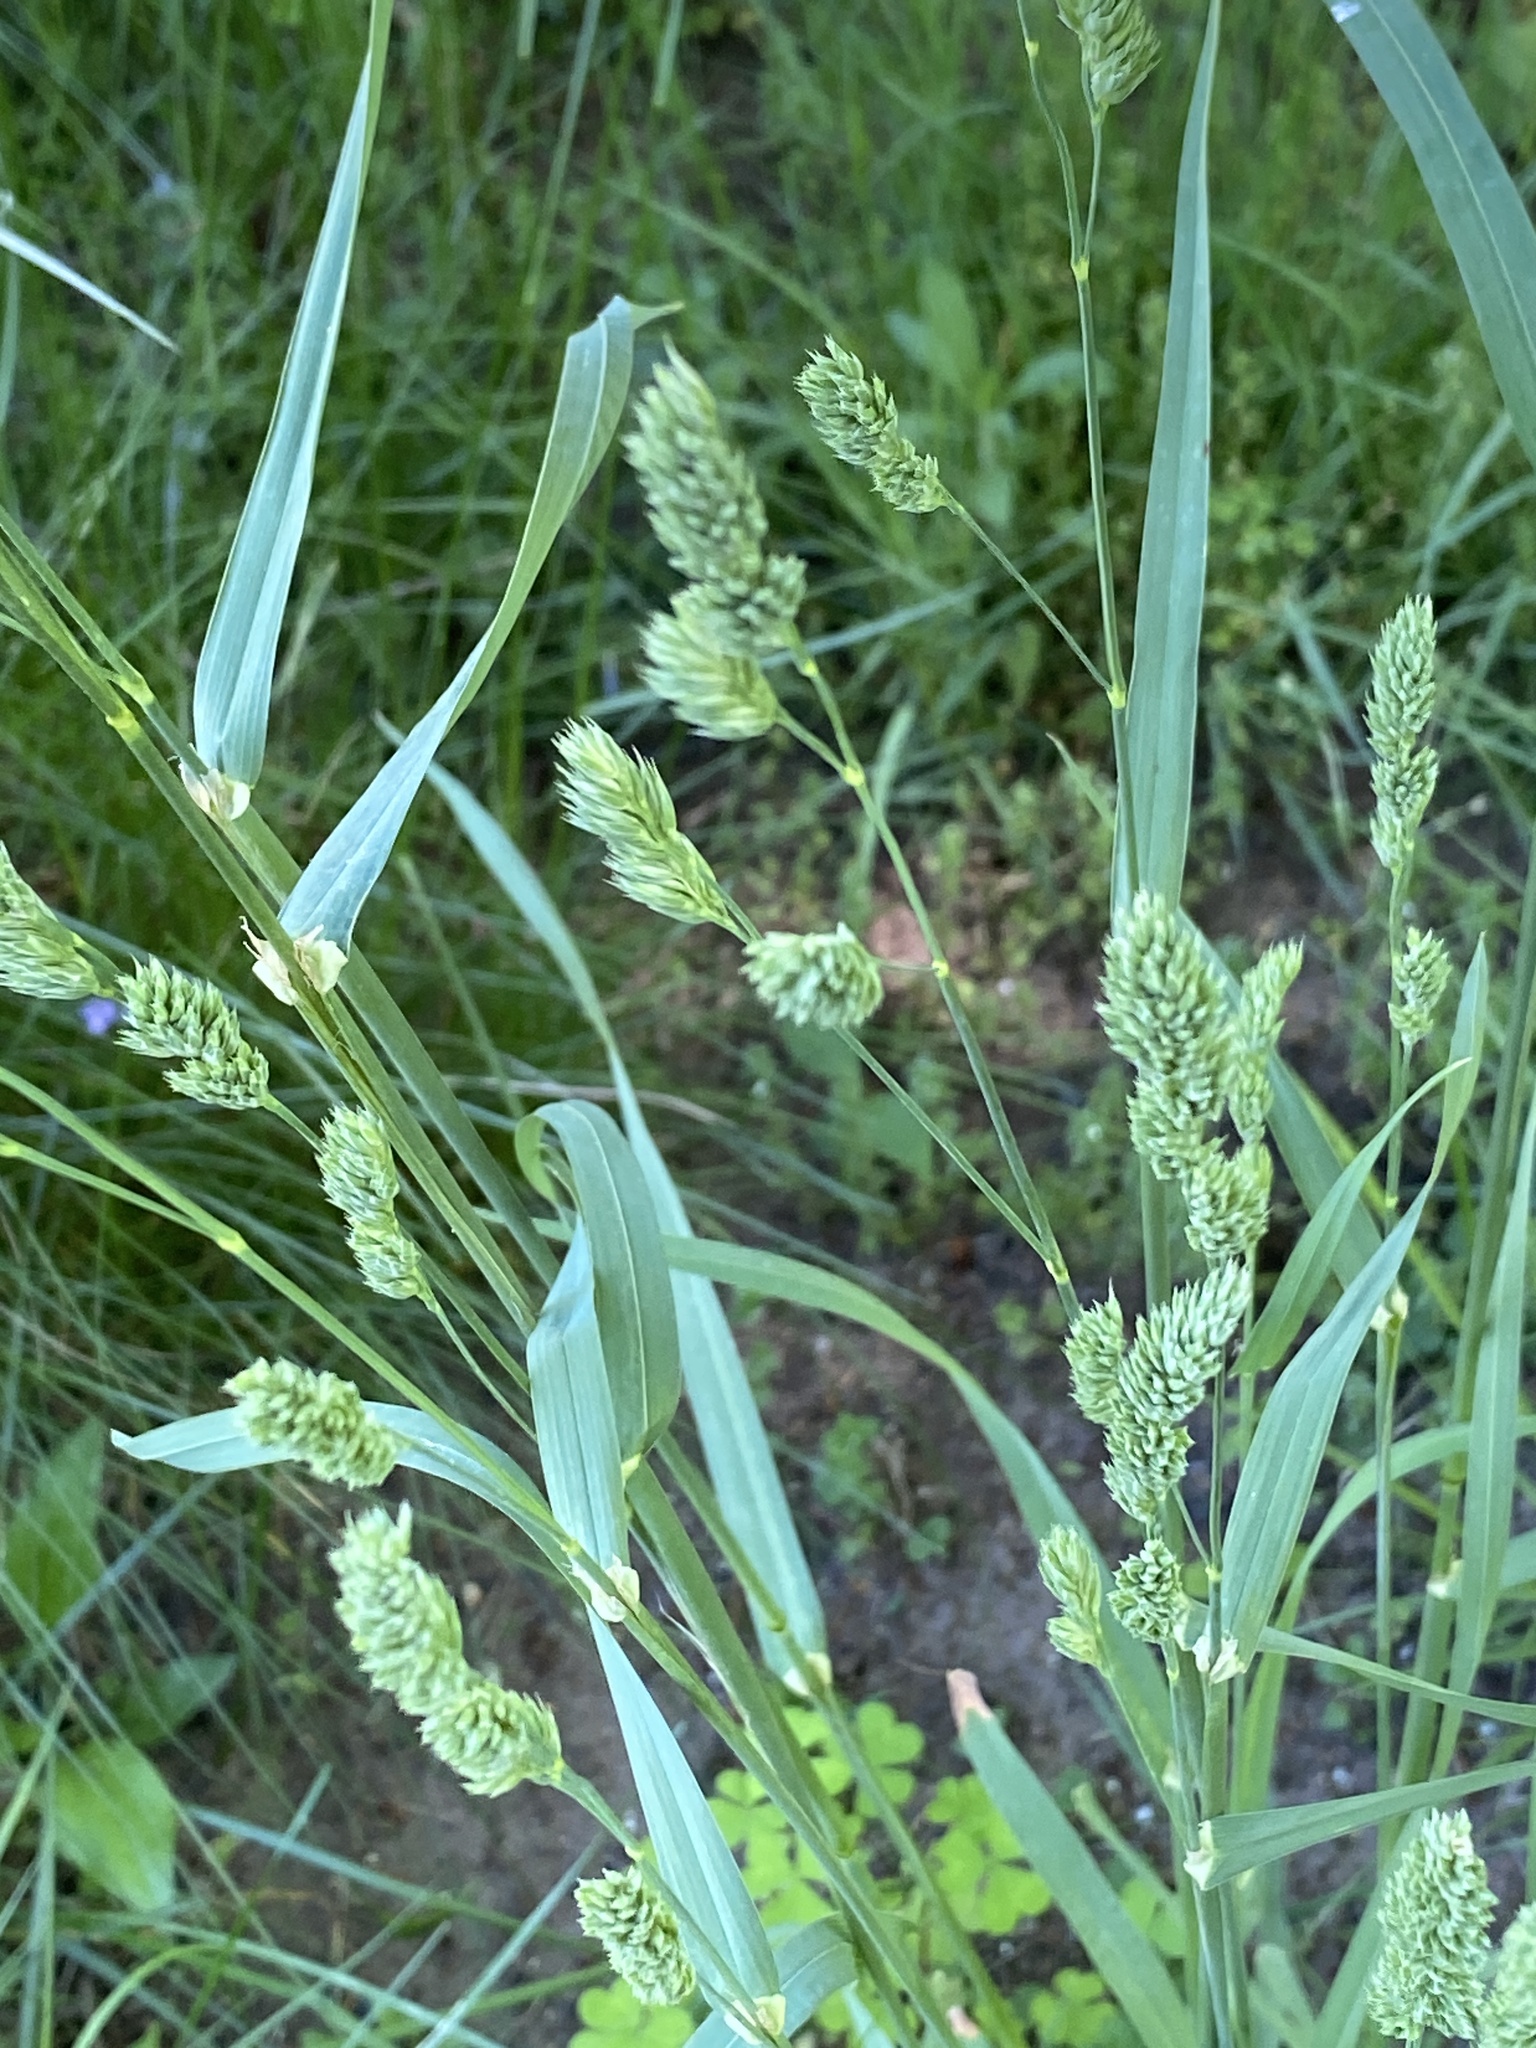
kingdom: Plantae
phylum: Tracheophyta
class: Liliopsida
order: Poales
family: Poaceae
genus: Dactylis
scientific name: Dactylis glomerata
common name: Orchardgrass
